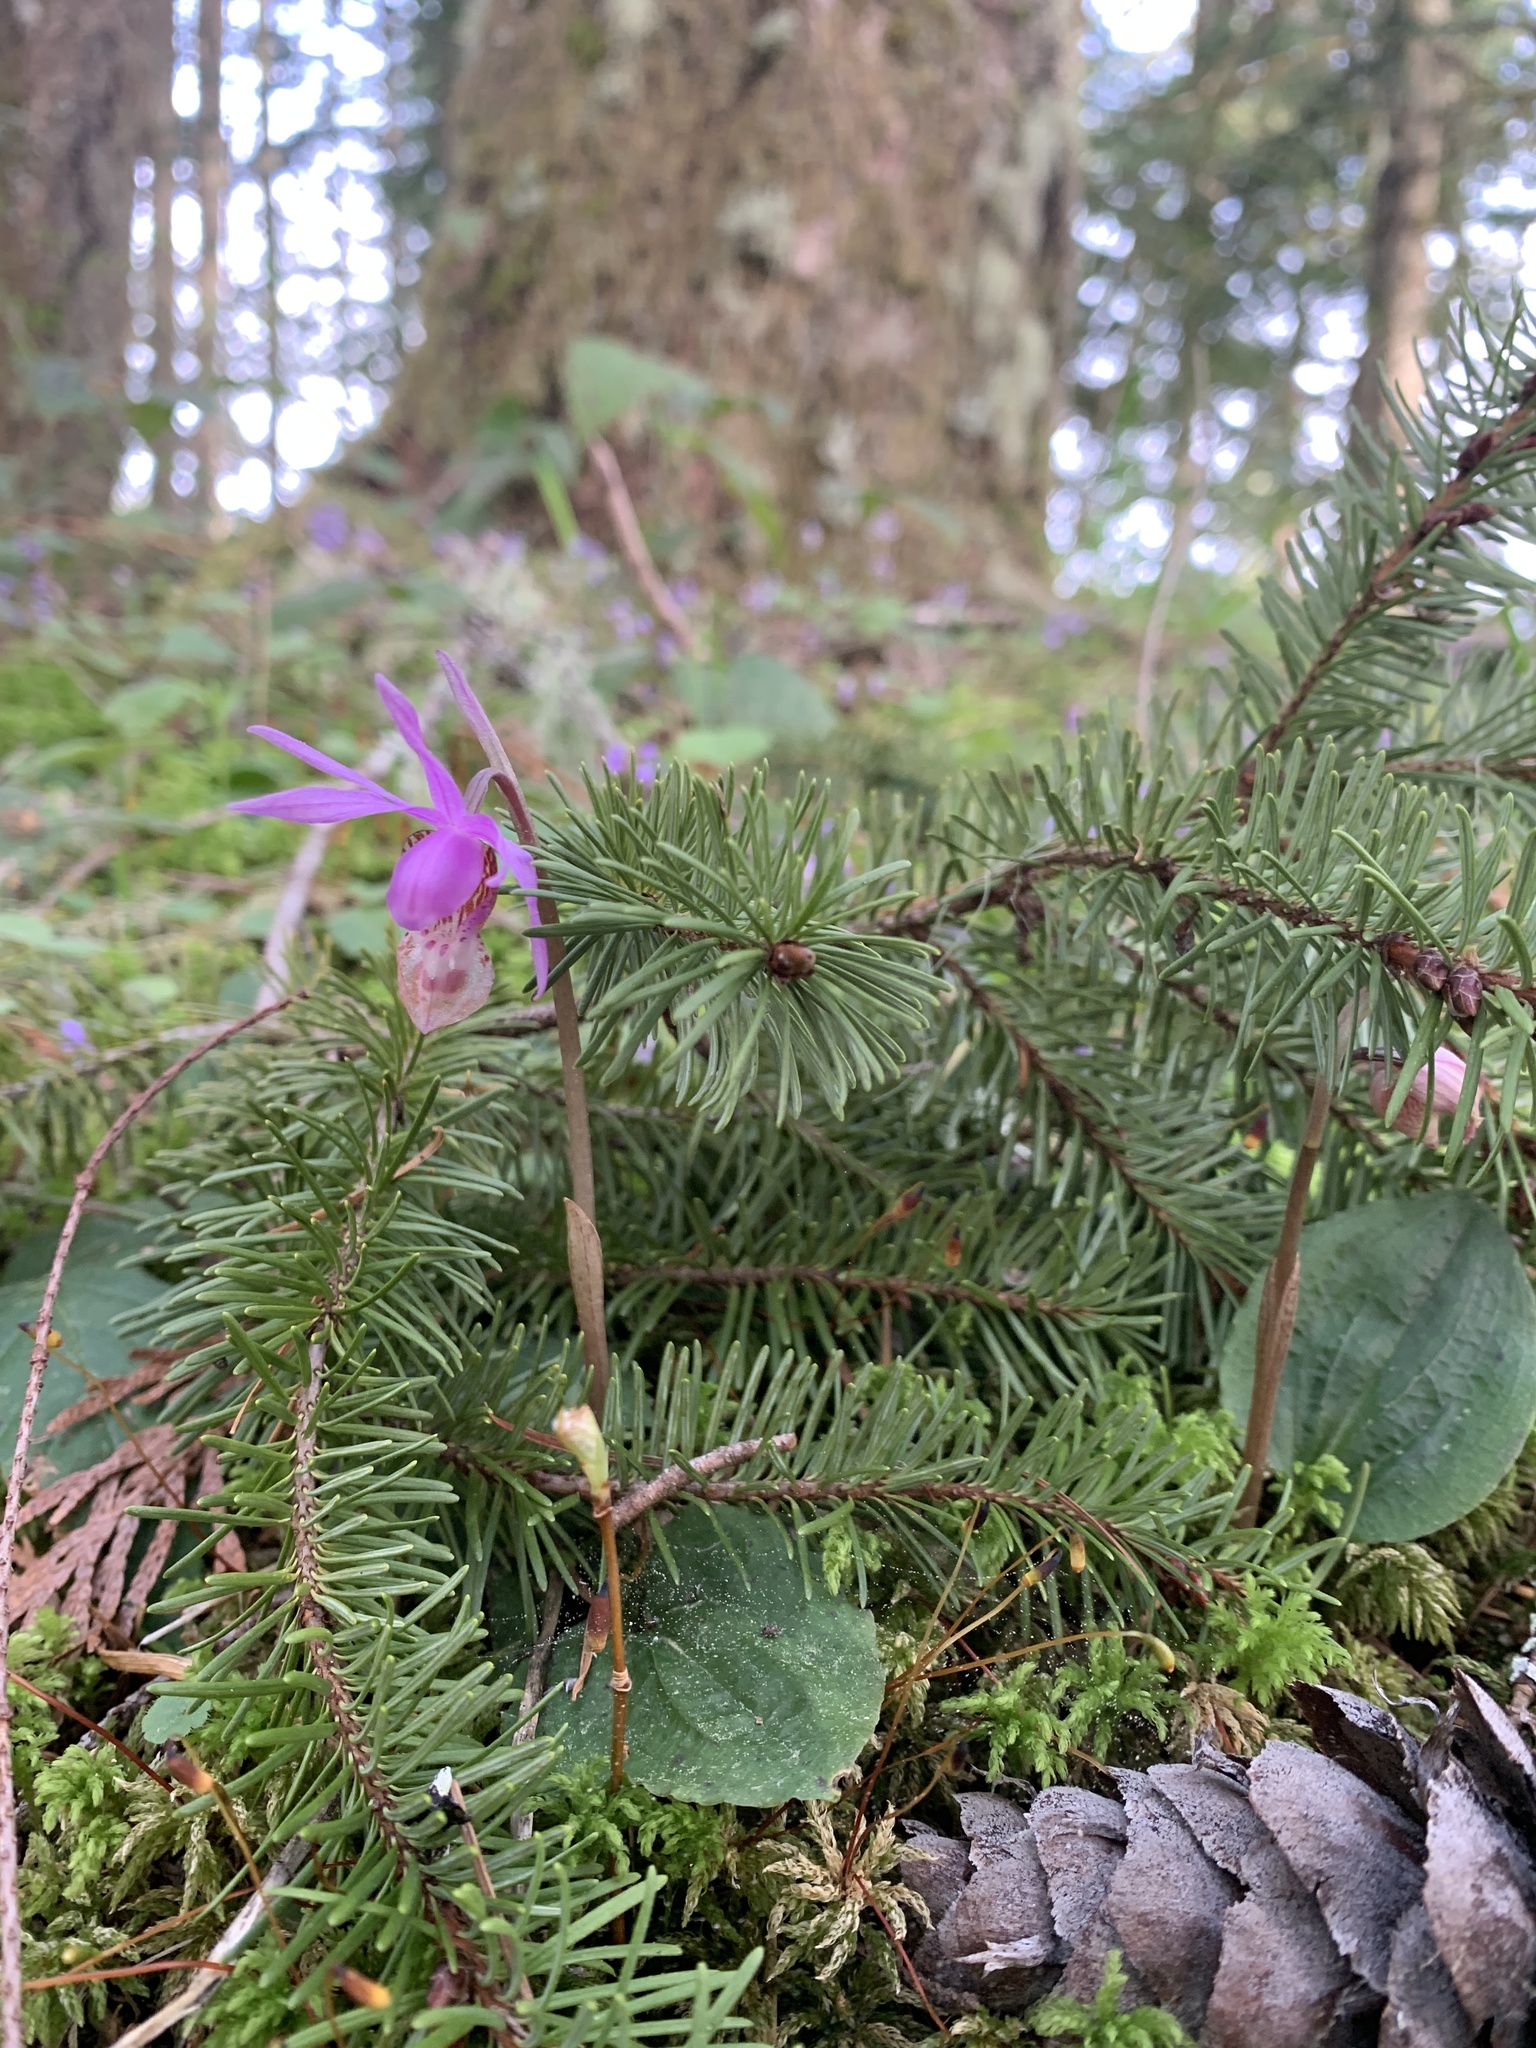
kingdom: Plantae
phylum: Tracheophyta
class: Liliopsida
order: Asparagales
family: Orchidaceae
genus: Calypso
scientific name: Calypso bulbosa
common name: Calypso
